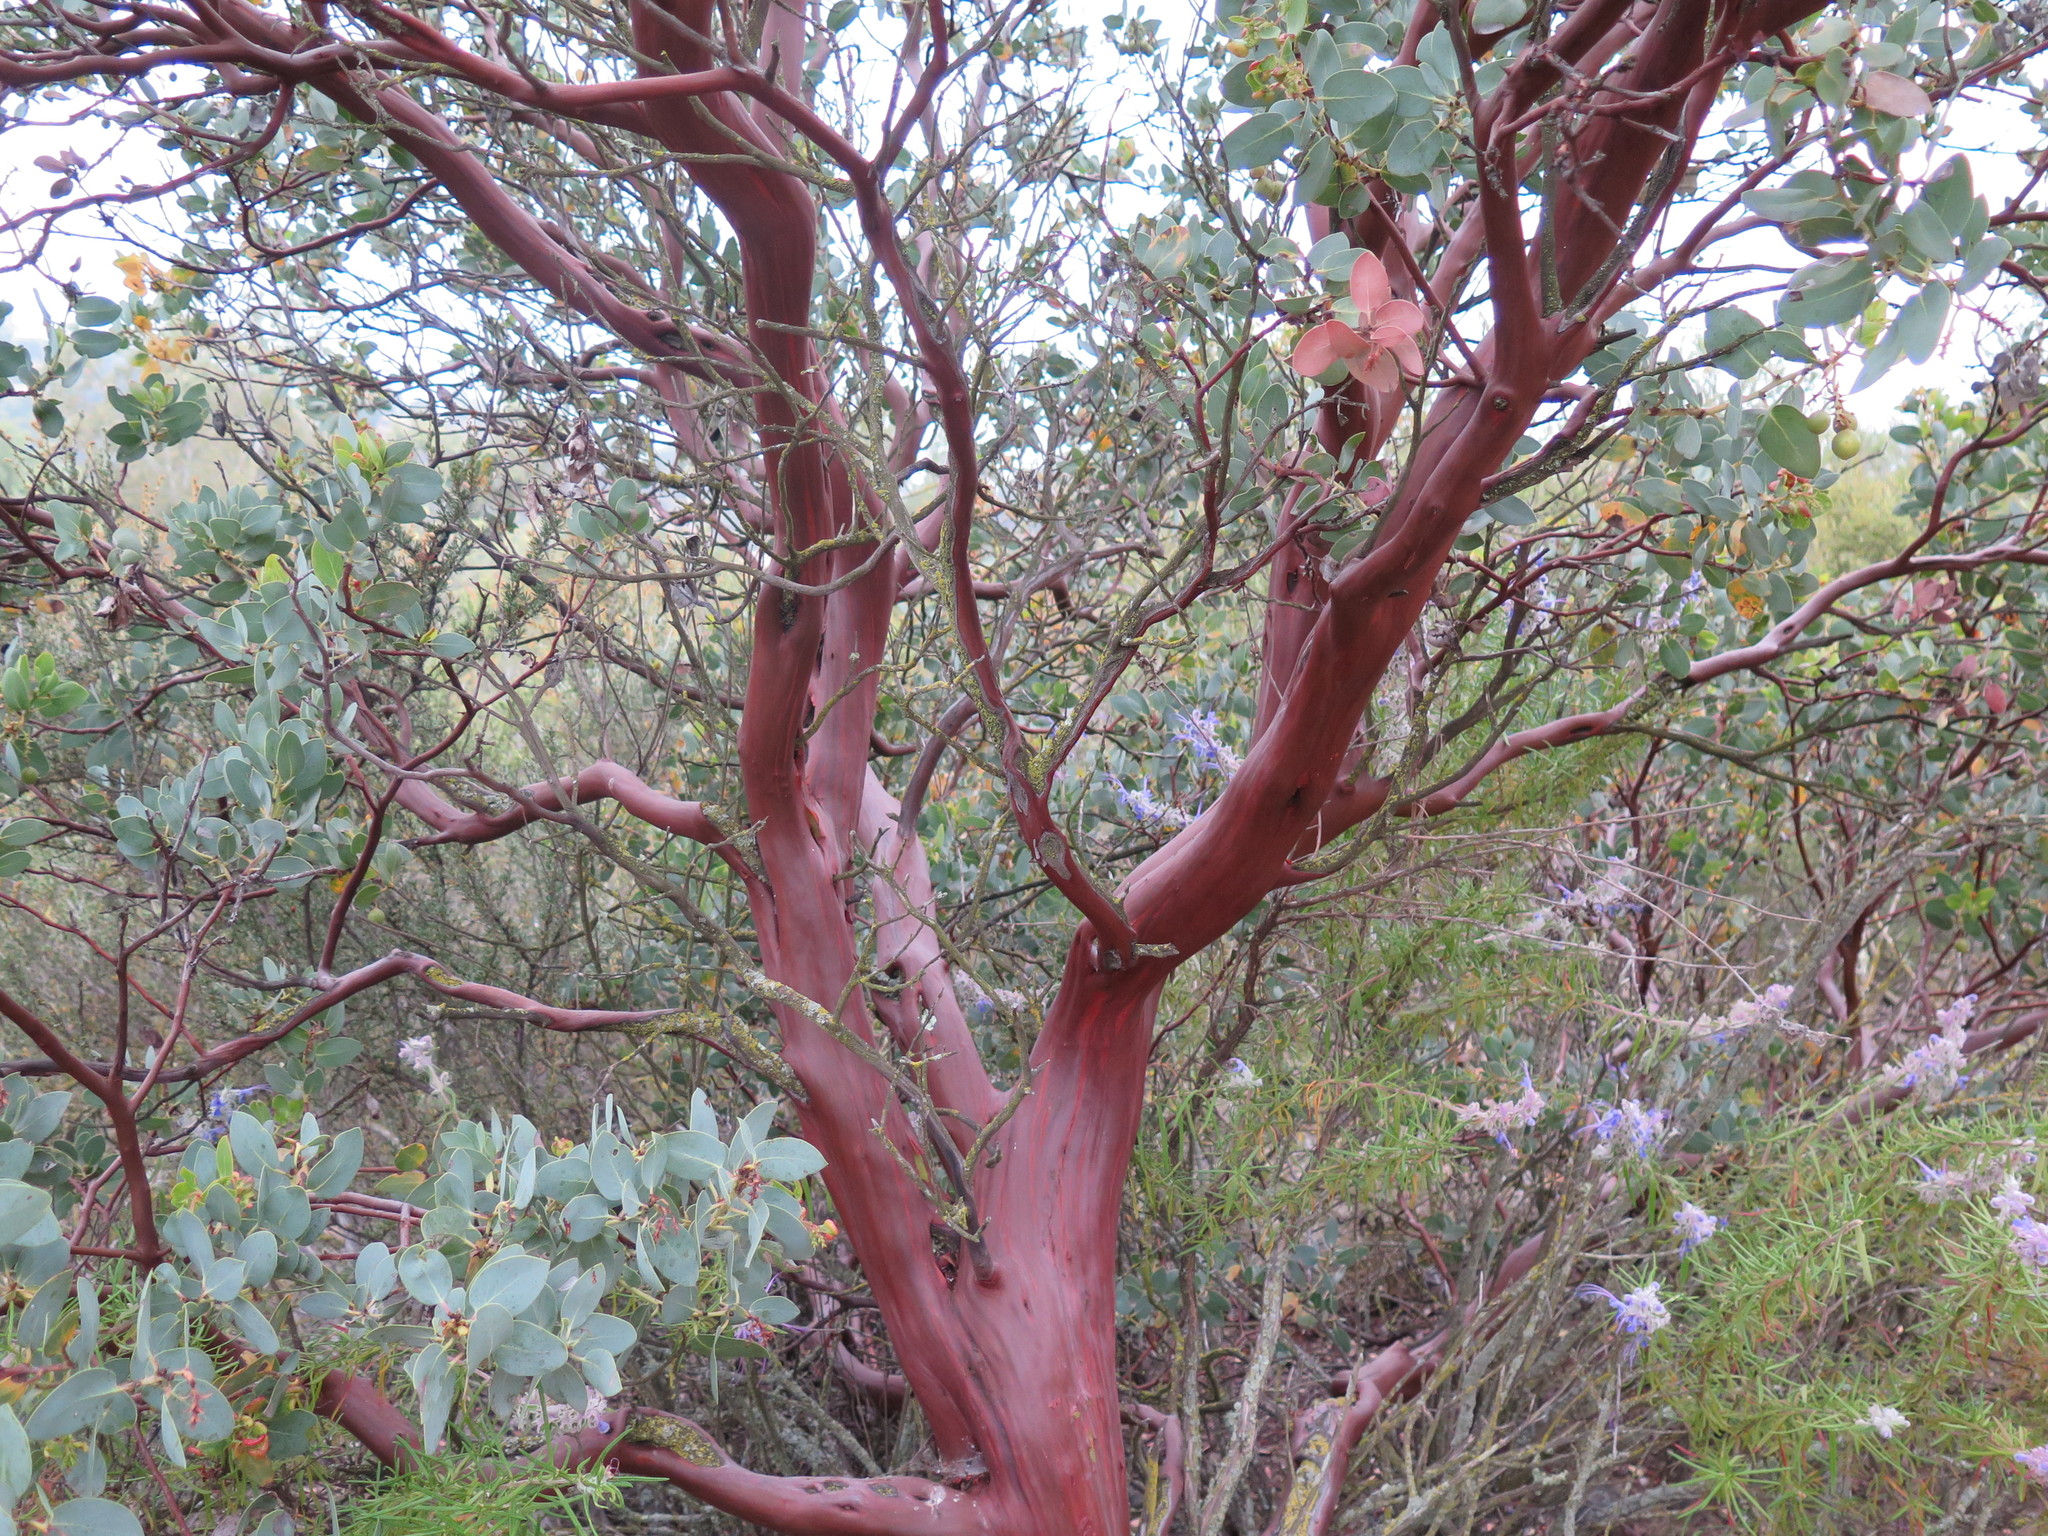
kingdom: Plantae
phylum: Tracheophyta
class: Magnoliopsida
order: Ericales
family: Ericaceae
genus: Arctostaphylos
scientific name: Arctostaphylos glauca
